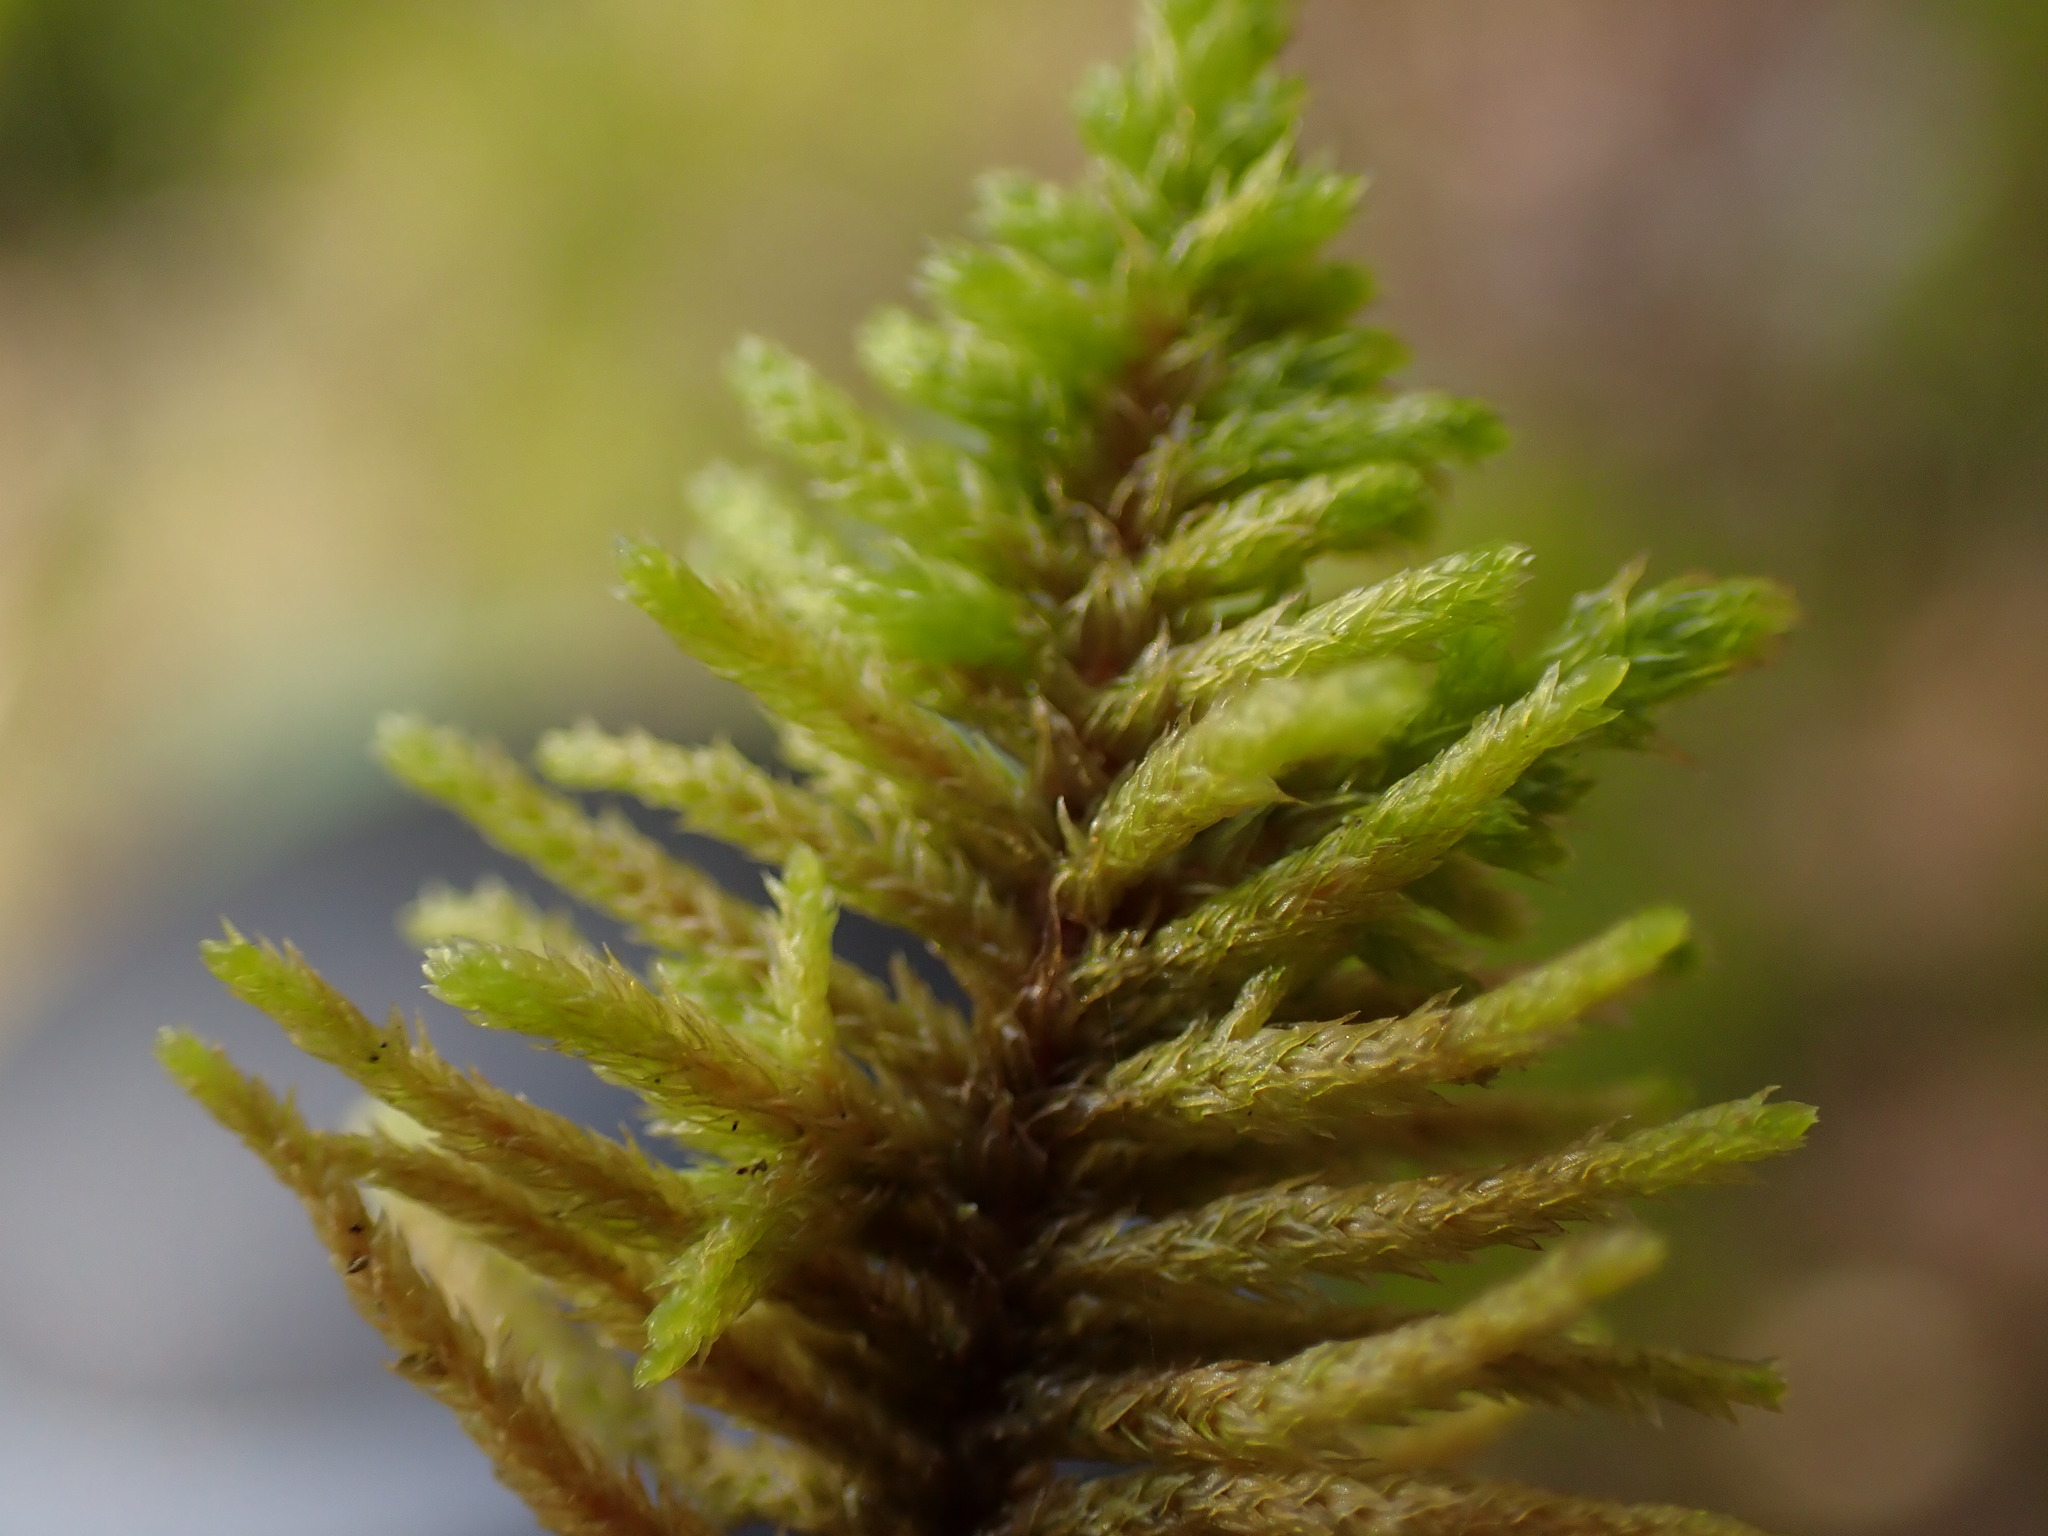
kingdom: Plantae
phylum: Bryophyta
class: Bryopsida
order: Hypnales
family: Thuidiaceae
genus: Abietinella
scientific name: Abietinella abietina
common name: Wiry fern moss
